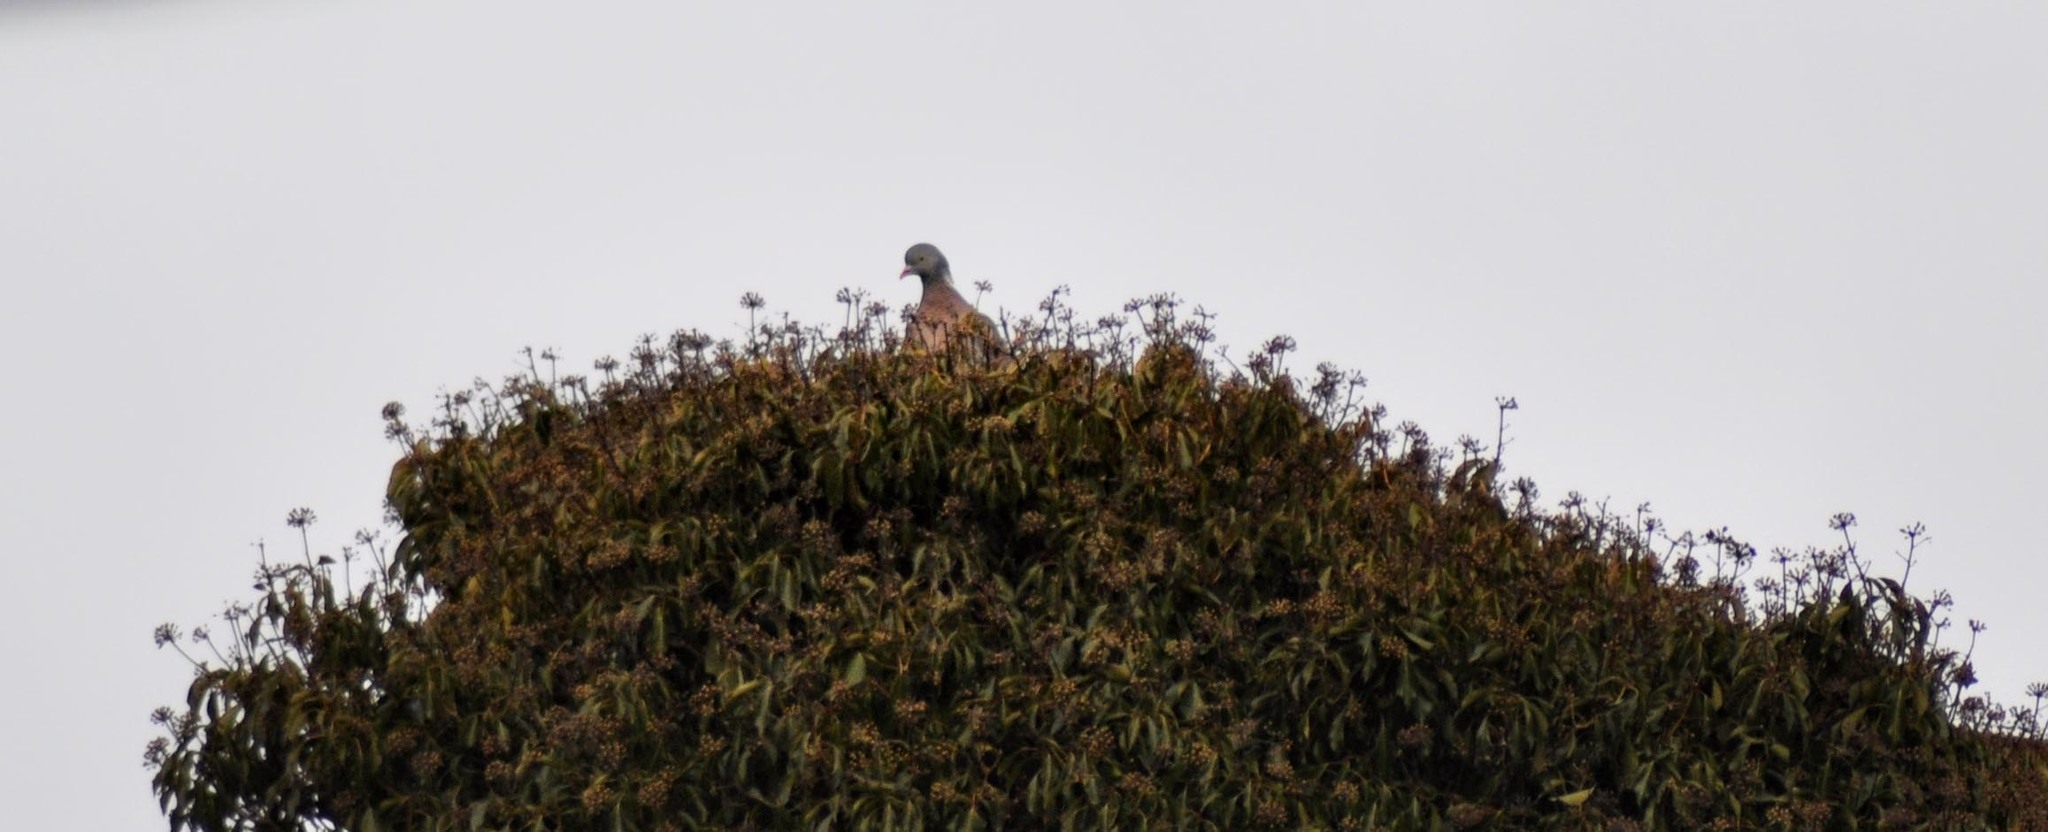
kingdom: Animalia
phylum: Chordata
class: Aves
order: Columbiformes
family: Columbidae
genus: Columba
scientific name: Columba palumbus
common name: Common wood pigeon
